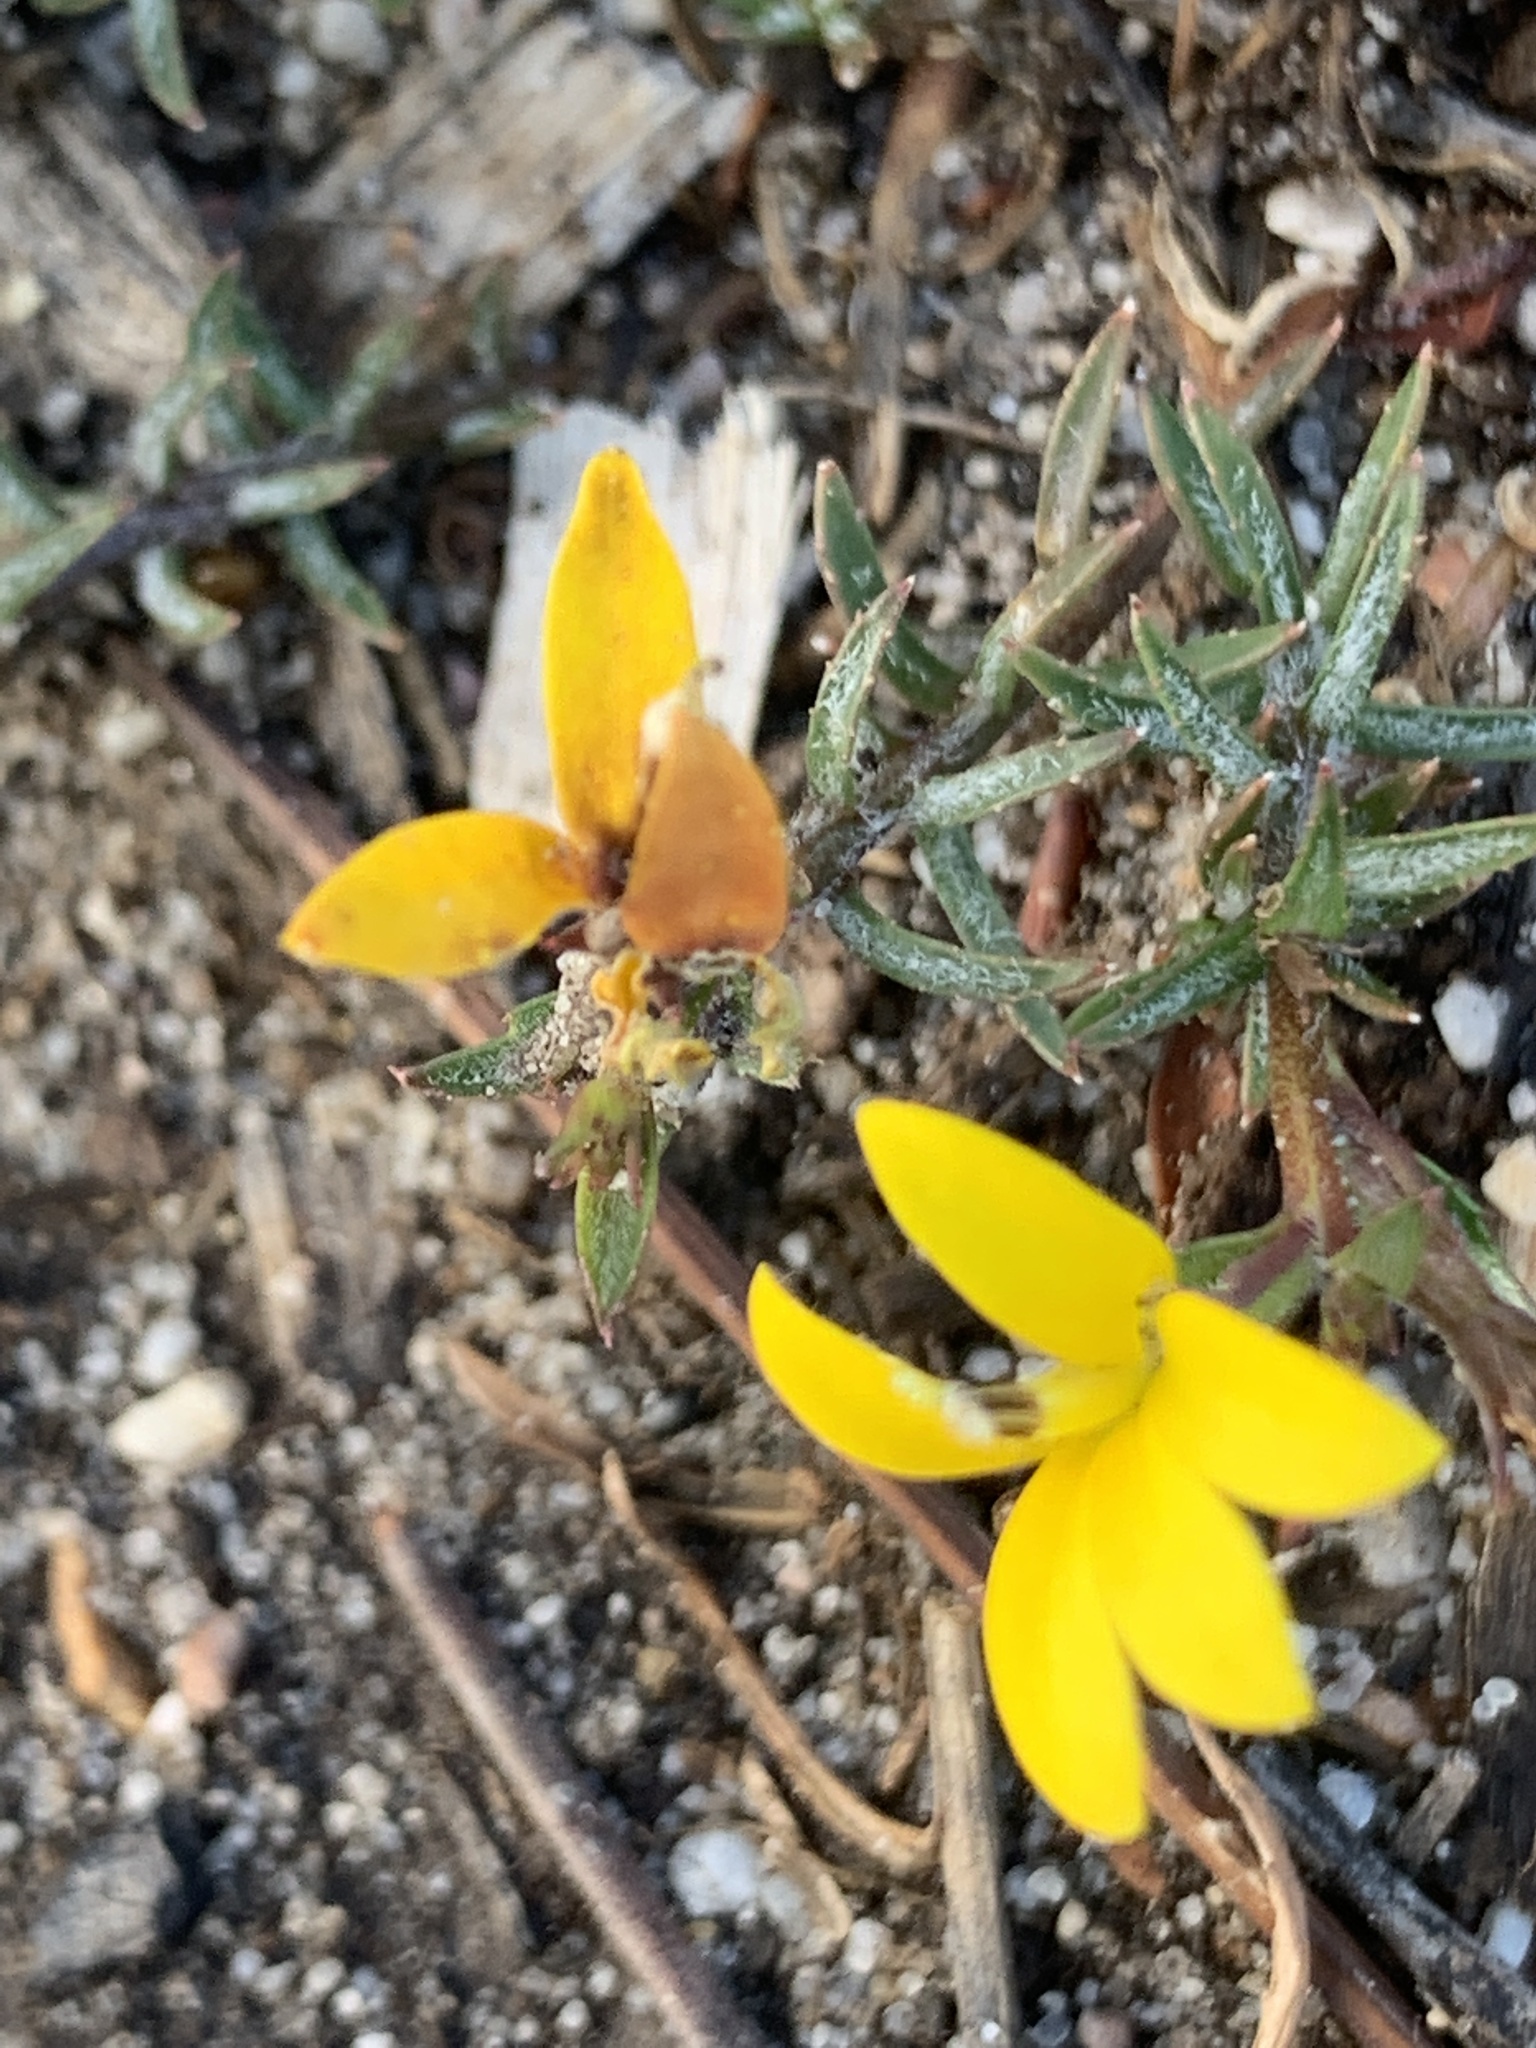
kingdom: Plantae
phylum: Tracheophyta
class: Magnoliopsida
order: Asterales
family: Campanulaceae
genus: Monopsis
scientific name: Monopsis lutea
